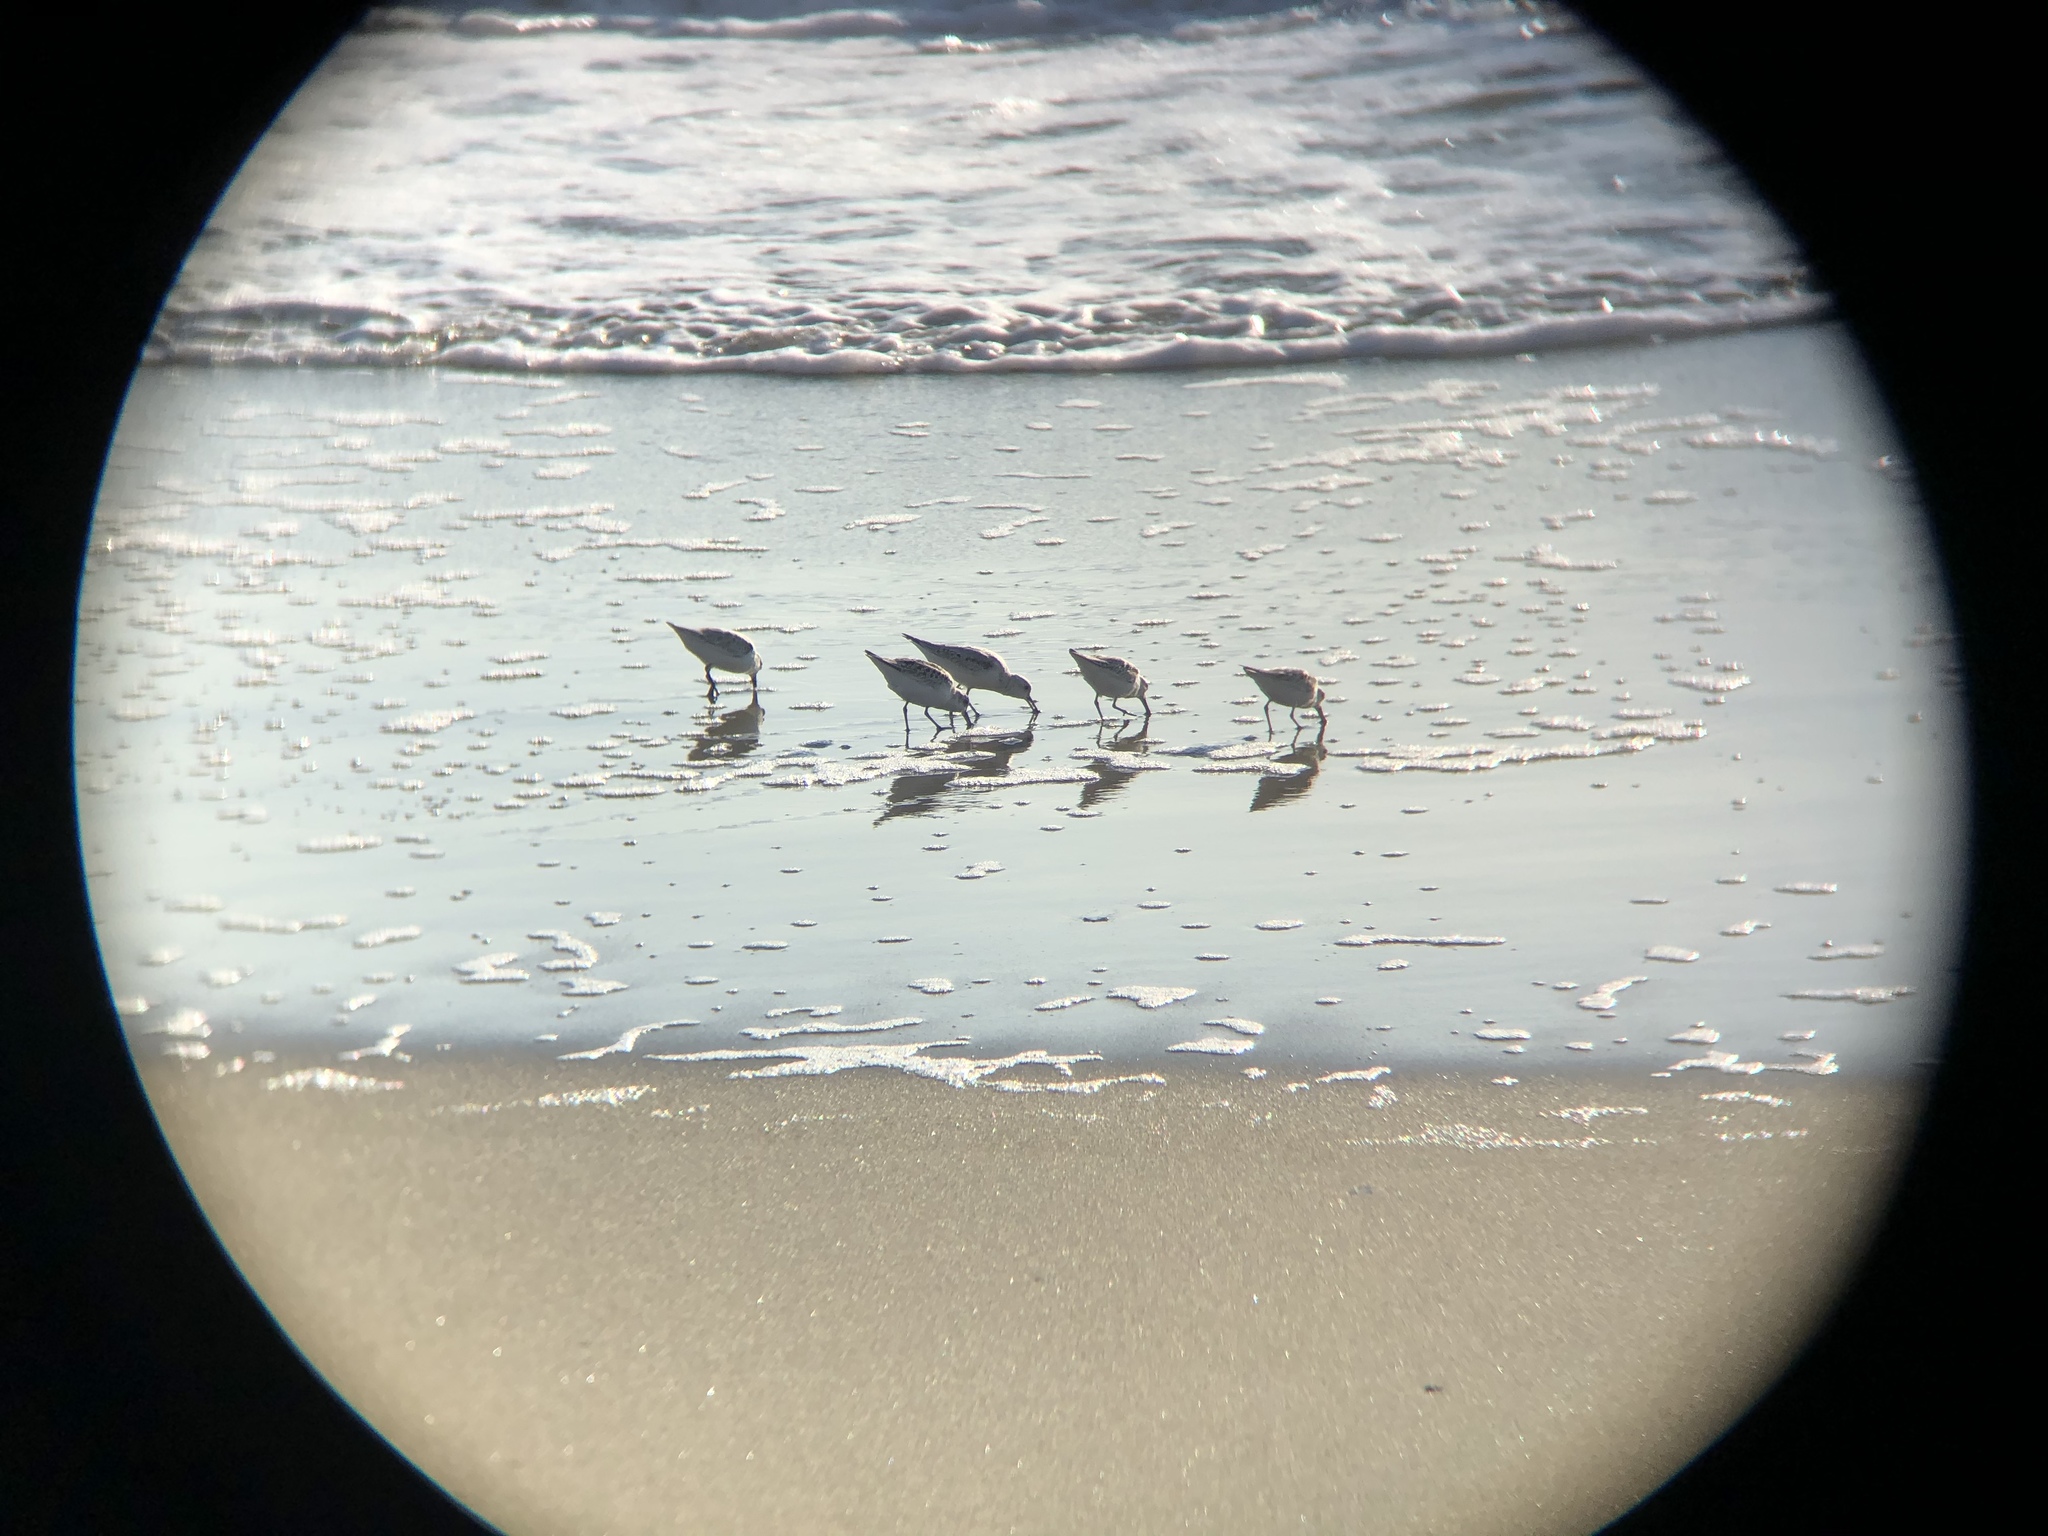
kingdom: Animalia
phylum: Chordata
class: Aves
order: Charadriiformes
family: Scolopacidae
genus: Calidris
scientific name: Calidris alba
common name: Sanderling
